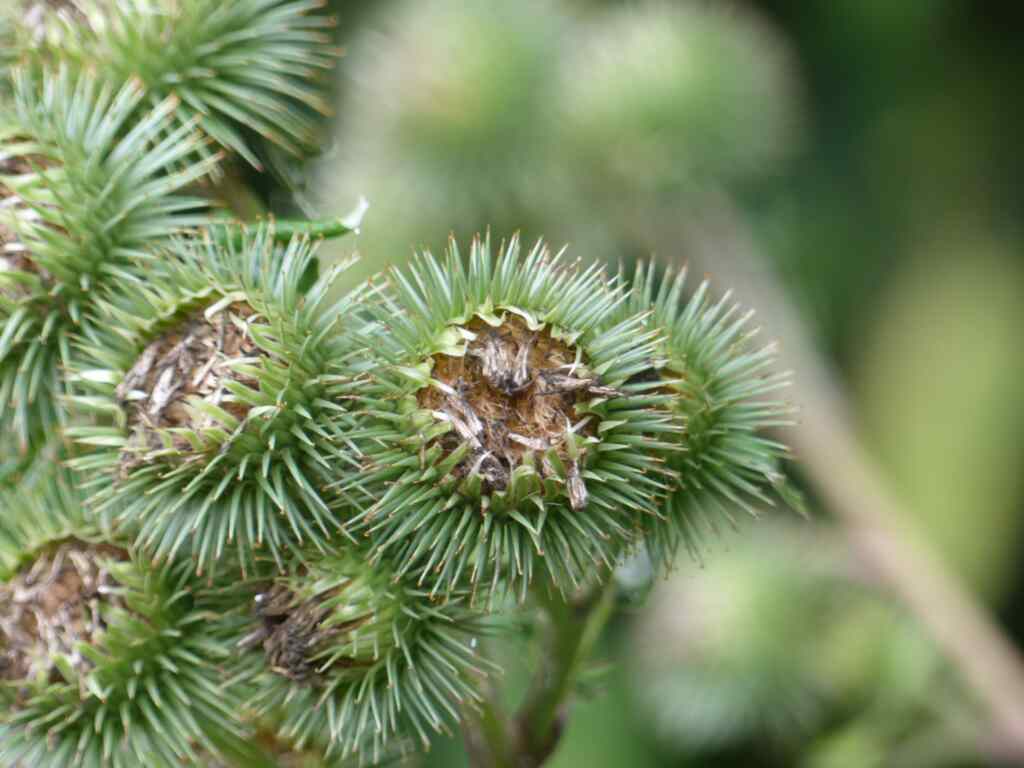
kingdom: Plantae
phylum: Tracheophyta
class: Magnoliopsida
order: Asterales
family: Asteraceae
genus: Arctium
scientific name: Arctium lappa
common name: Greater burdock
